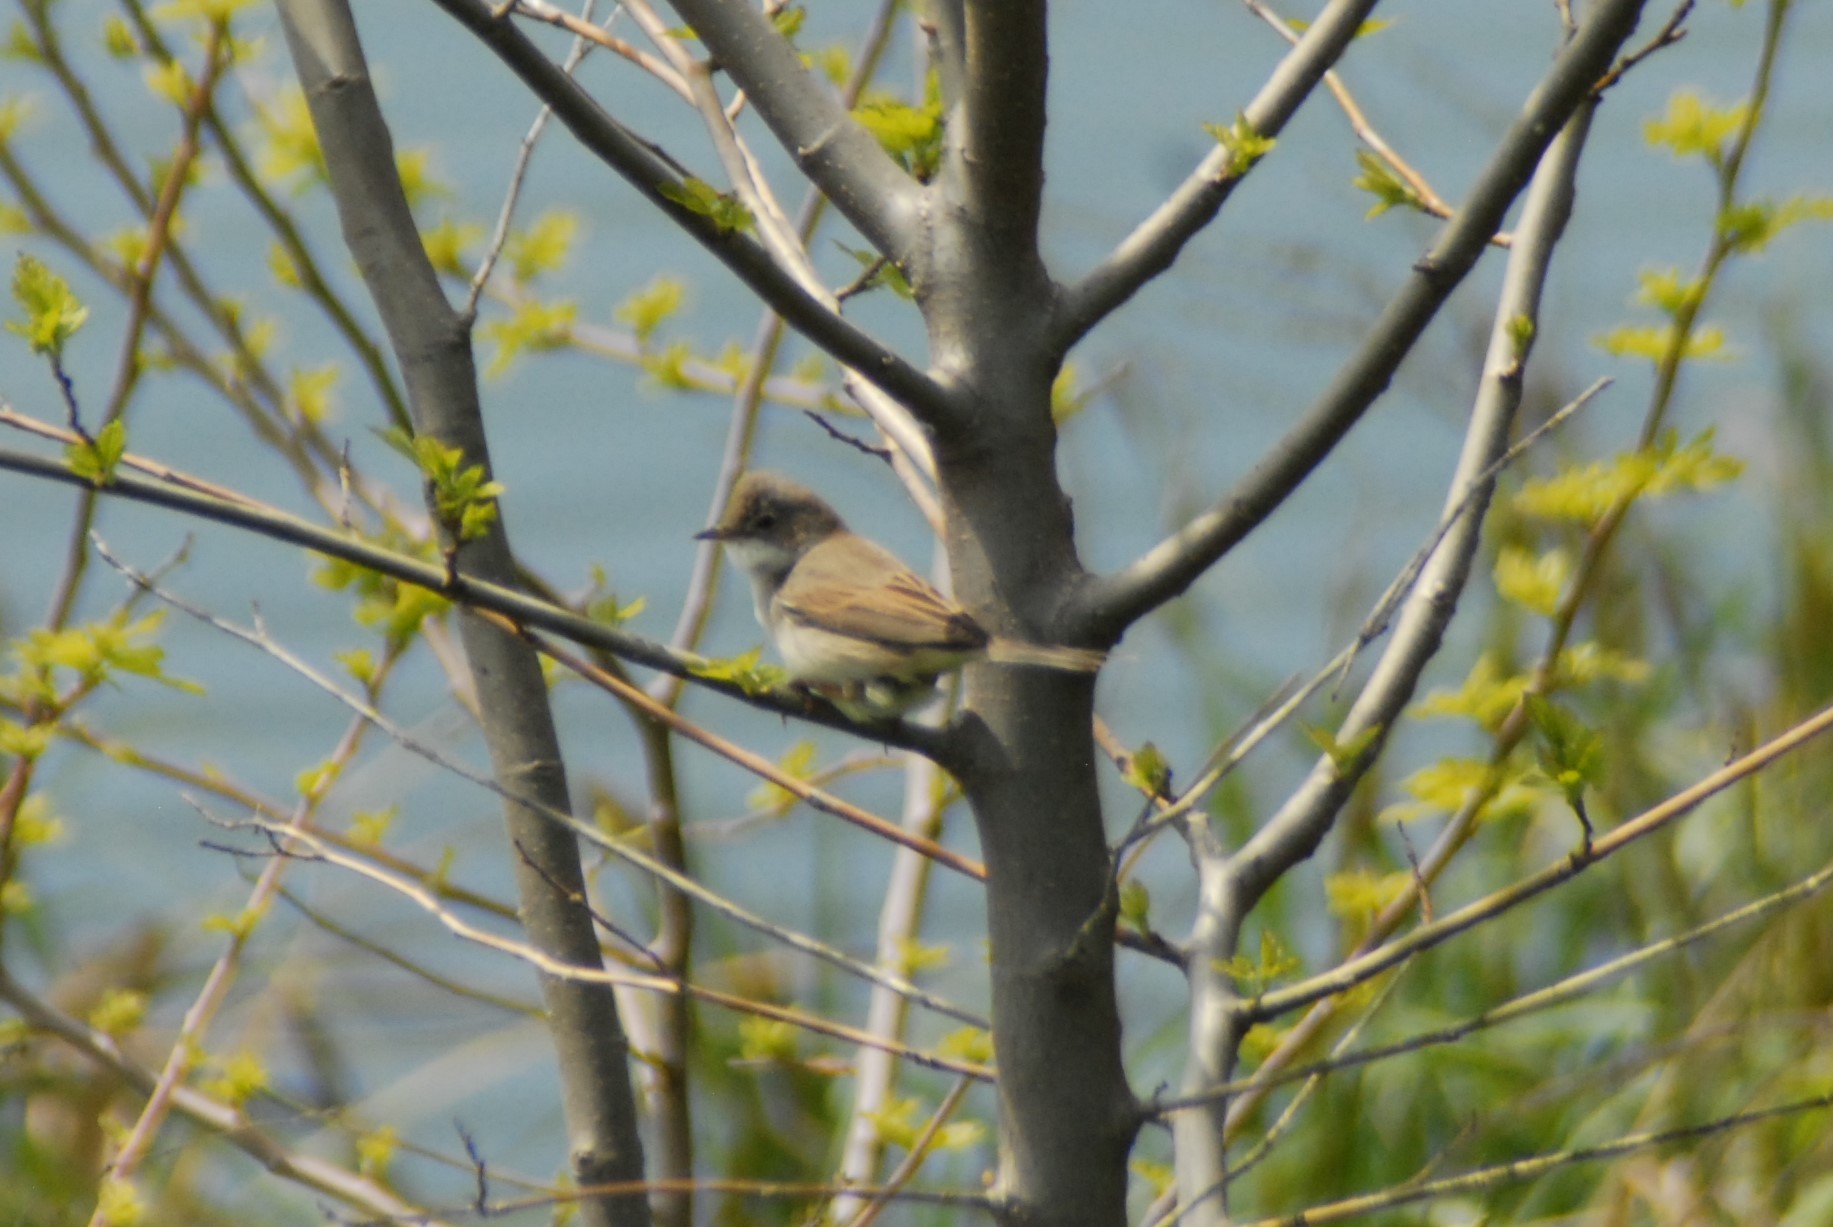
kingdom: Animalia
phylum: Chordata
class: Aves
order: Passeriformes
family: Sylviidae
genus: Sylvia
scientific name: Sylvia communis
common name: Common whitethroat
